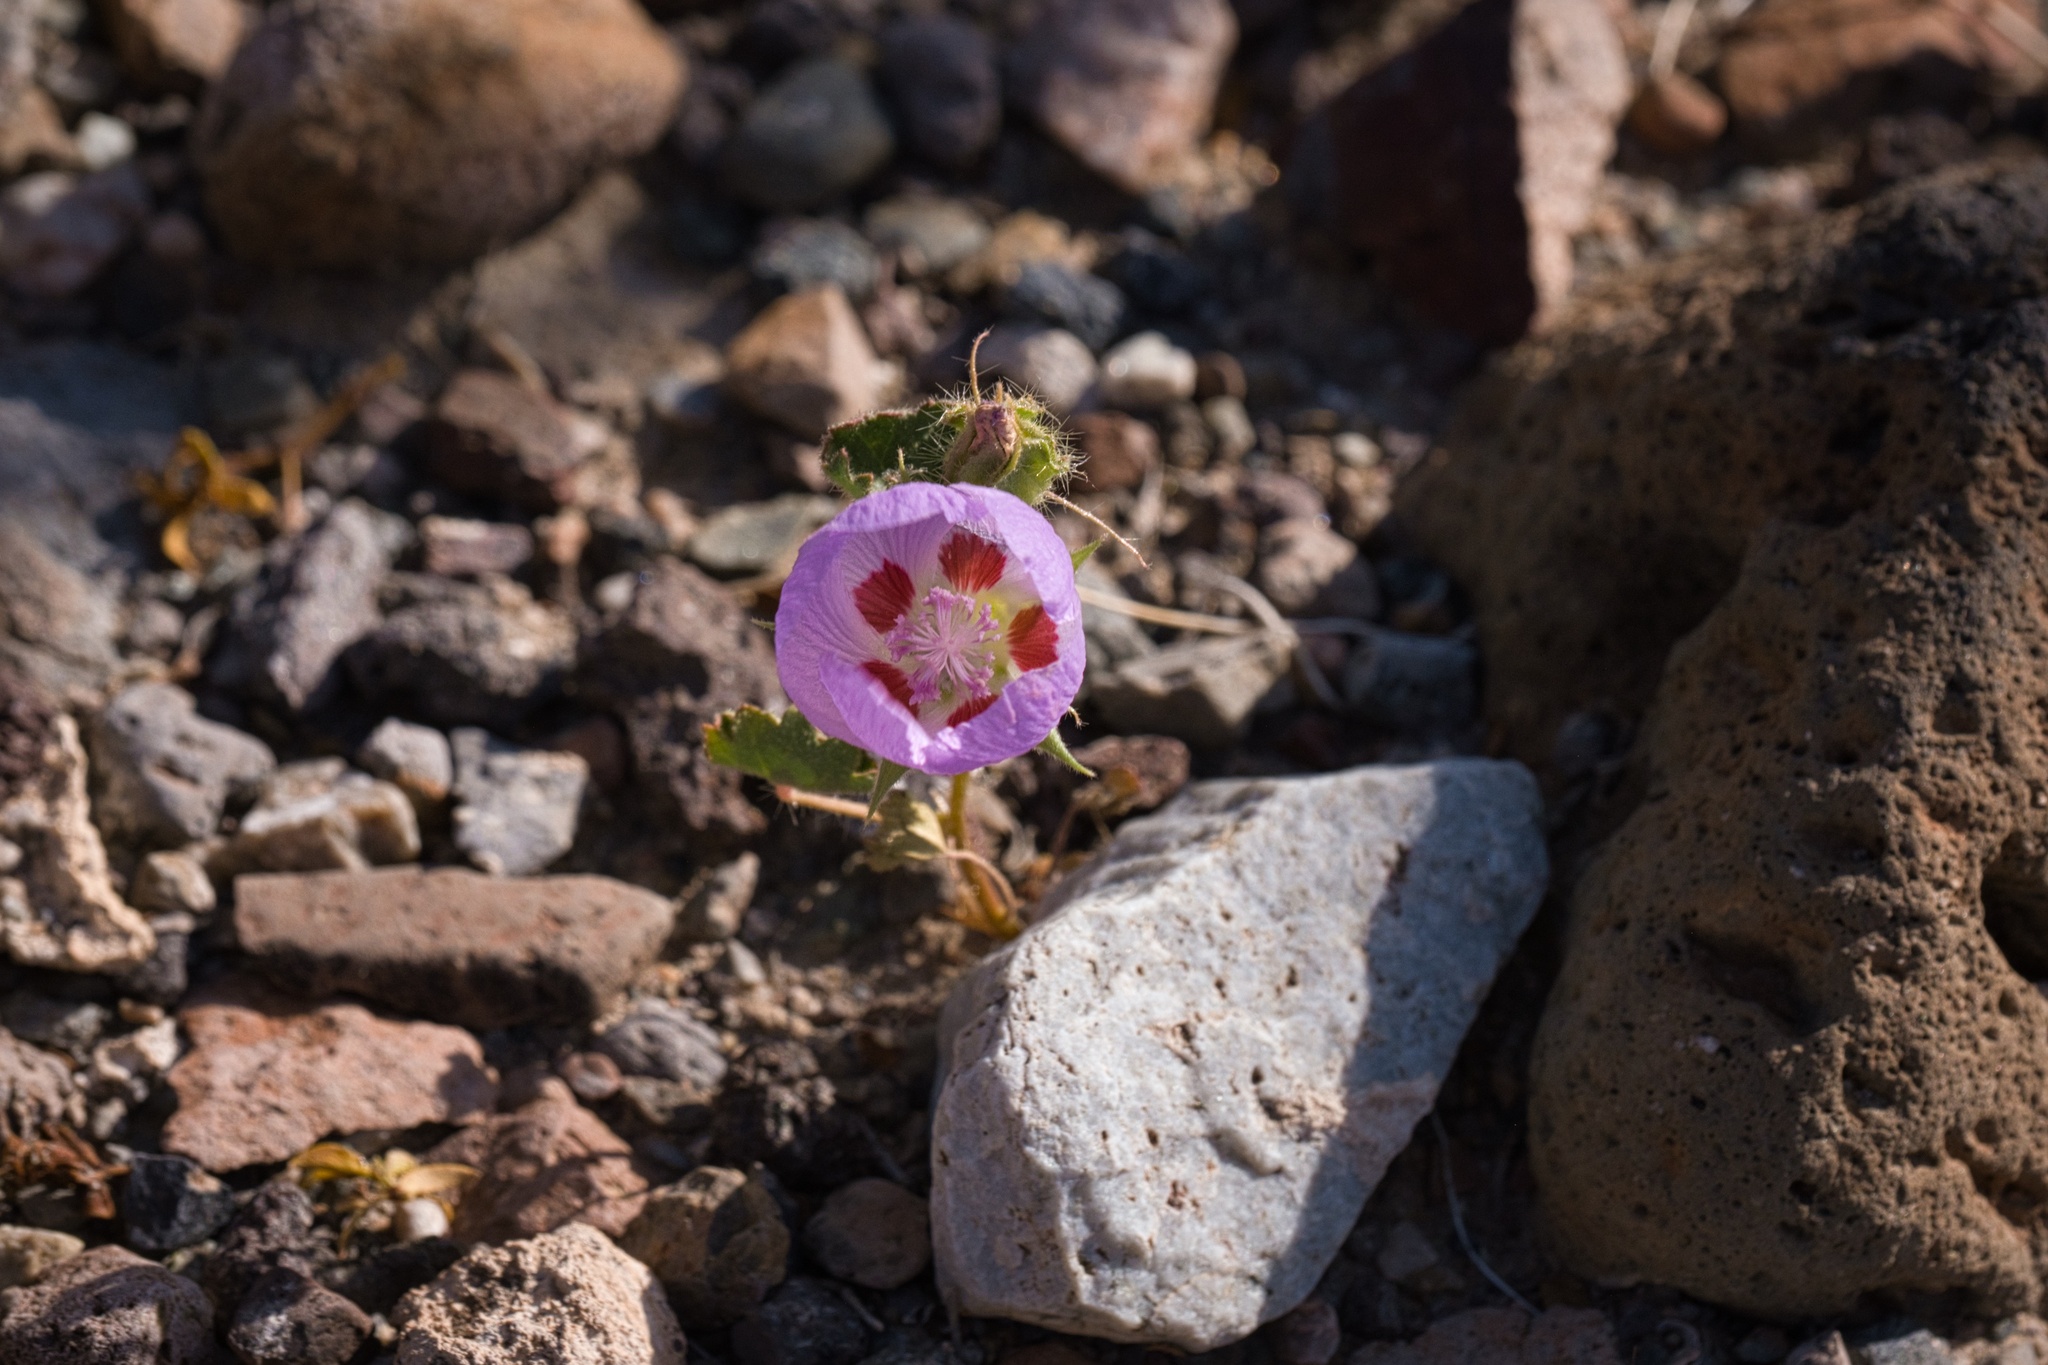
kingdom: Plantae
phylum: Tracheophyta
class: Magnoliopsida
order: Malvales
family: Malvaceae
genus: Eremalche
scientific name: Eremalche rotundifolia
